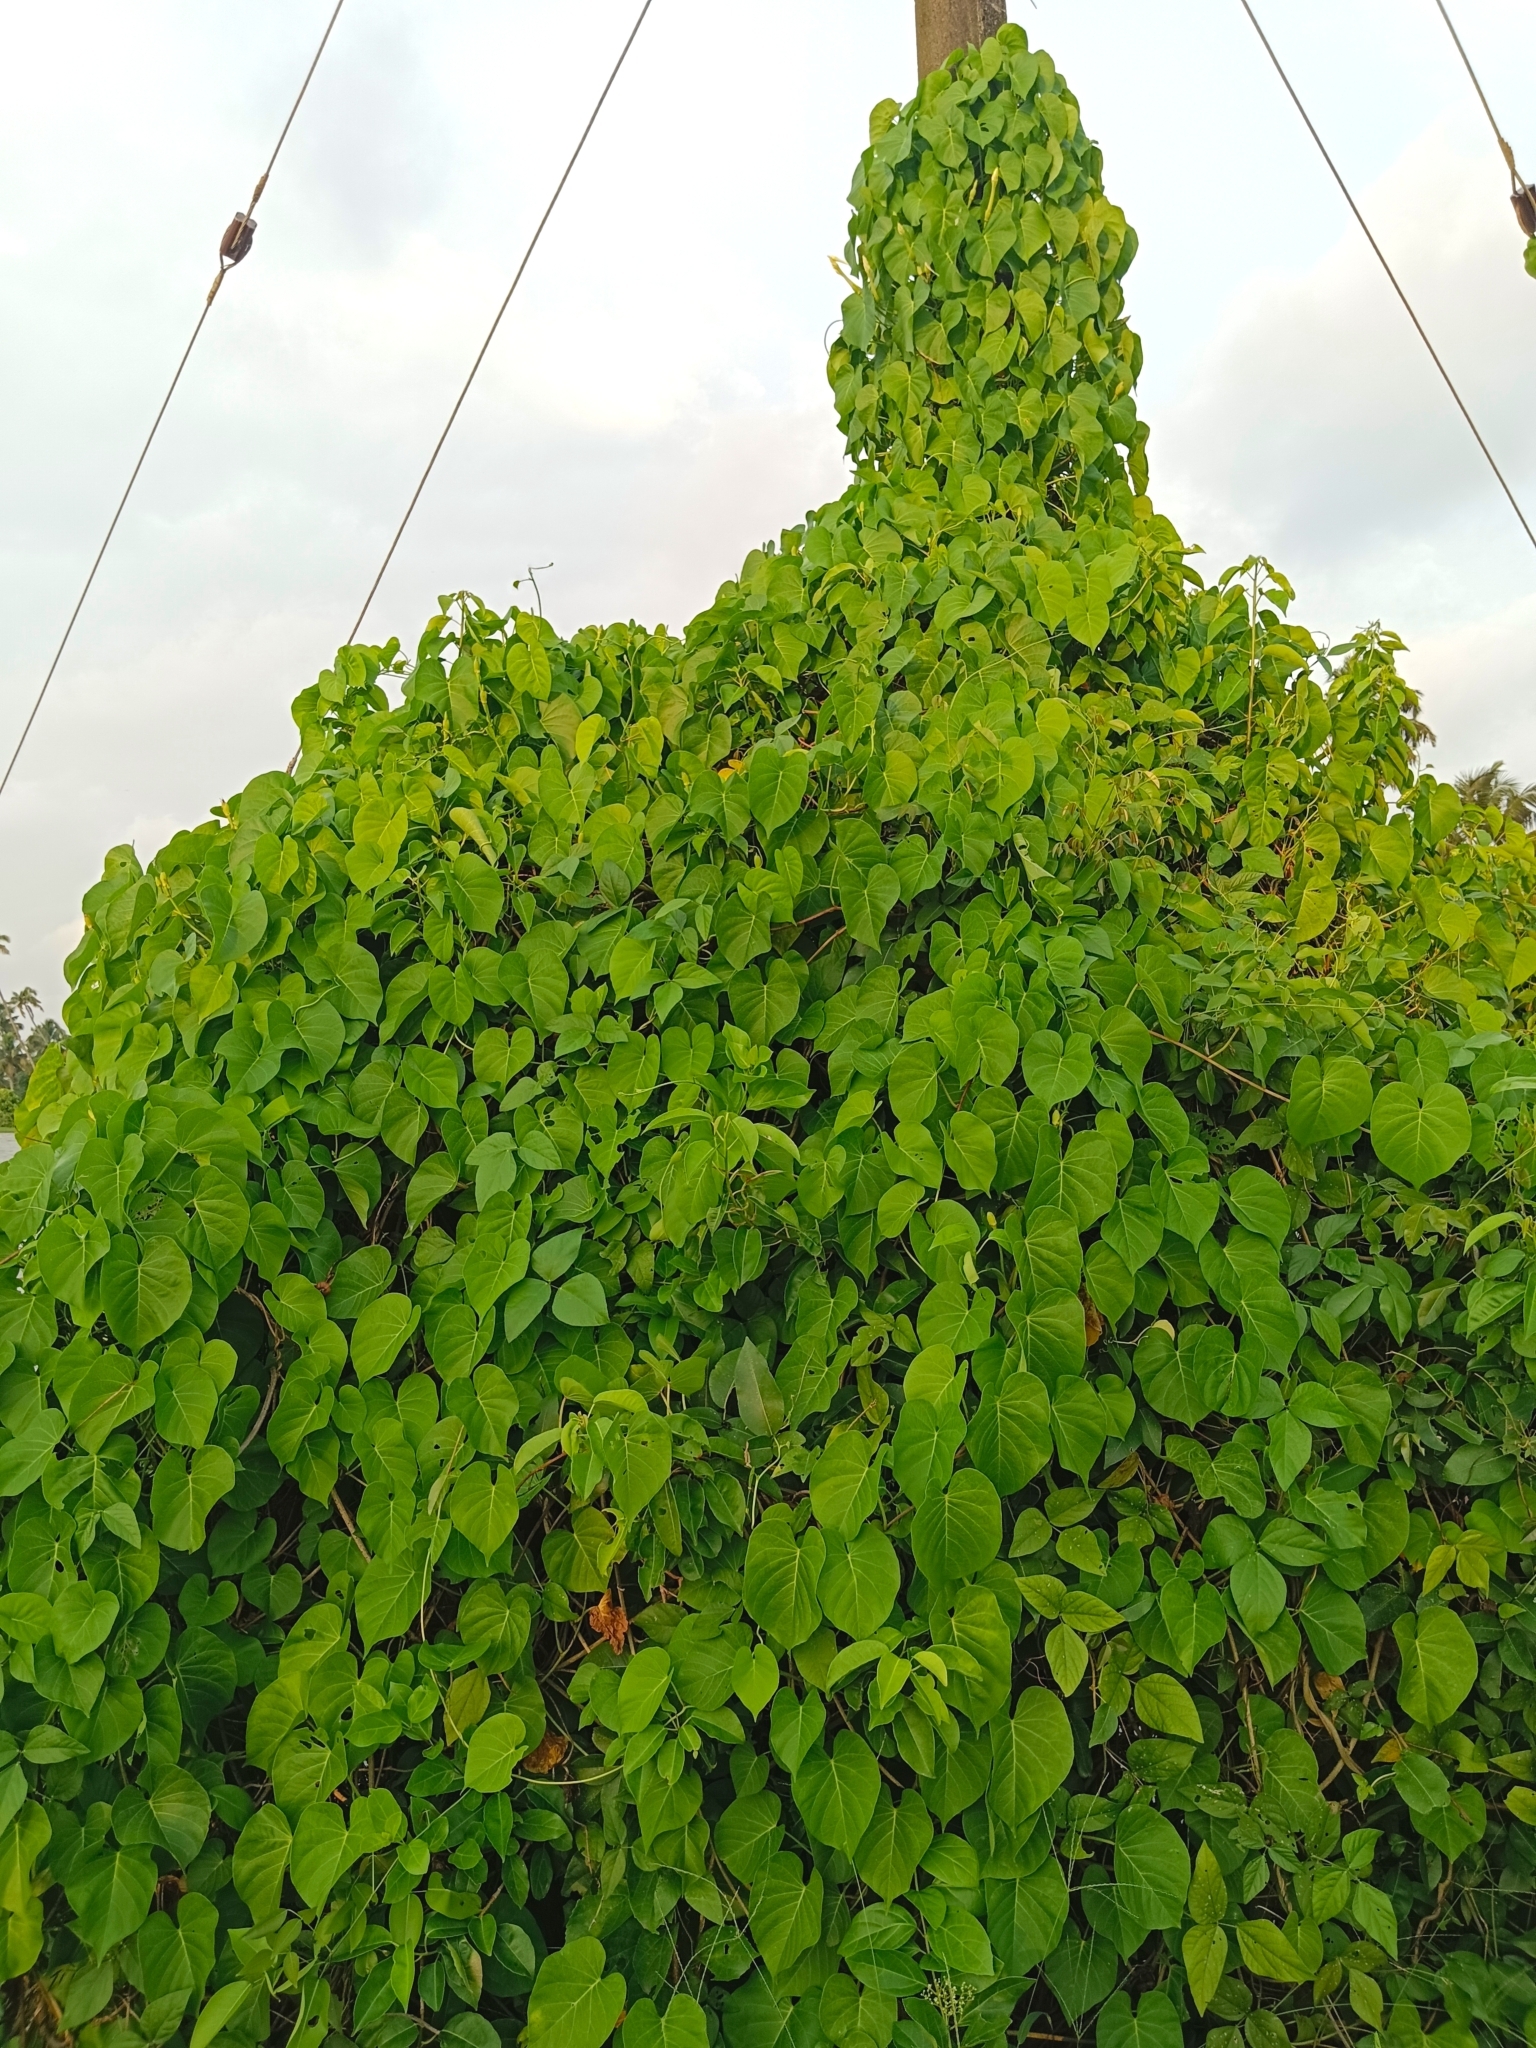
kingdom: Plantae
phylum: Tracheophyta
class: Magnoliopsida
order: Solanales
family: Convolvulaceae
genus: Ipomoea
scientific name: Ipomoea violacea
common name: Beach moonflower
